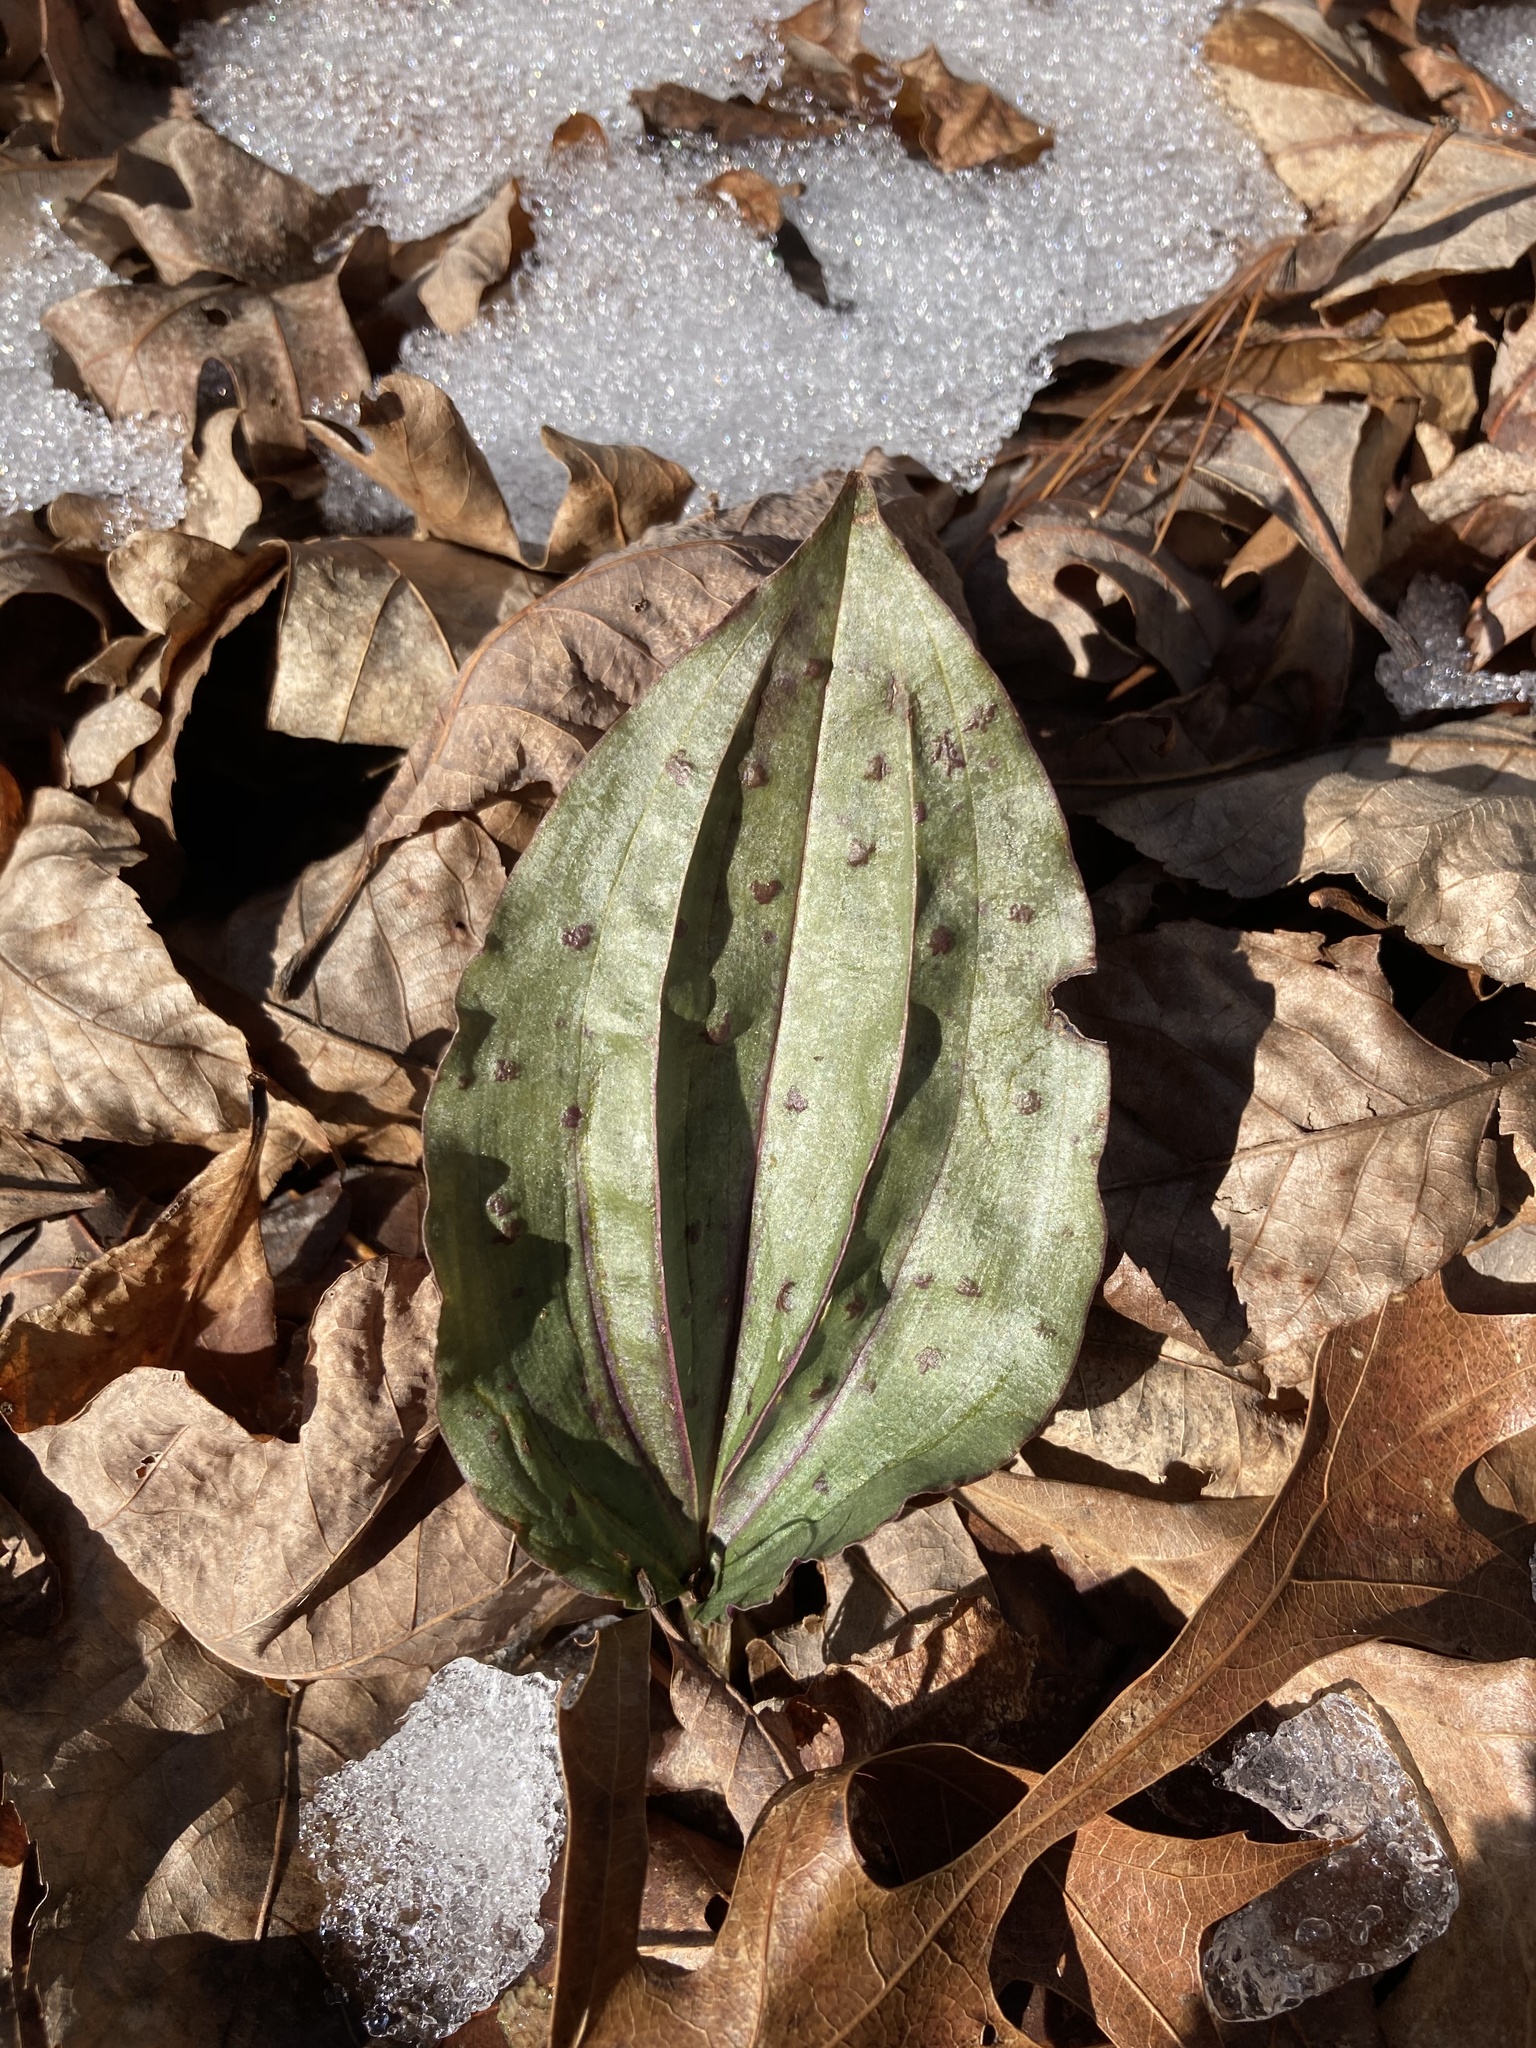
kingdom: Plantae
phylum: Tracheophyta
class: Liliopsida
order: Asparagales
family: Orchidaceae
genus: Tipularia
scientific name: Tipularia discolor
